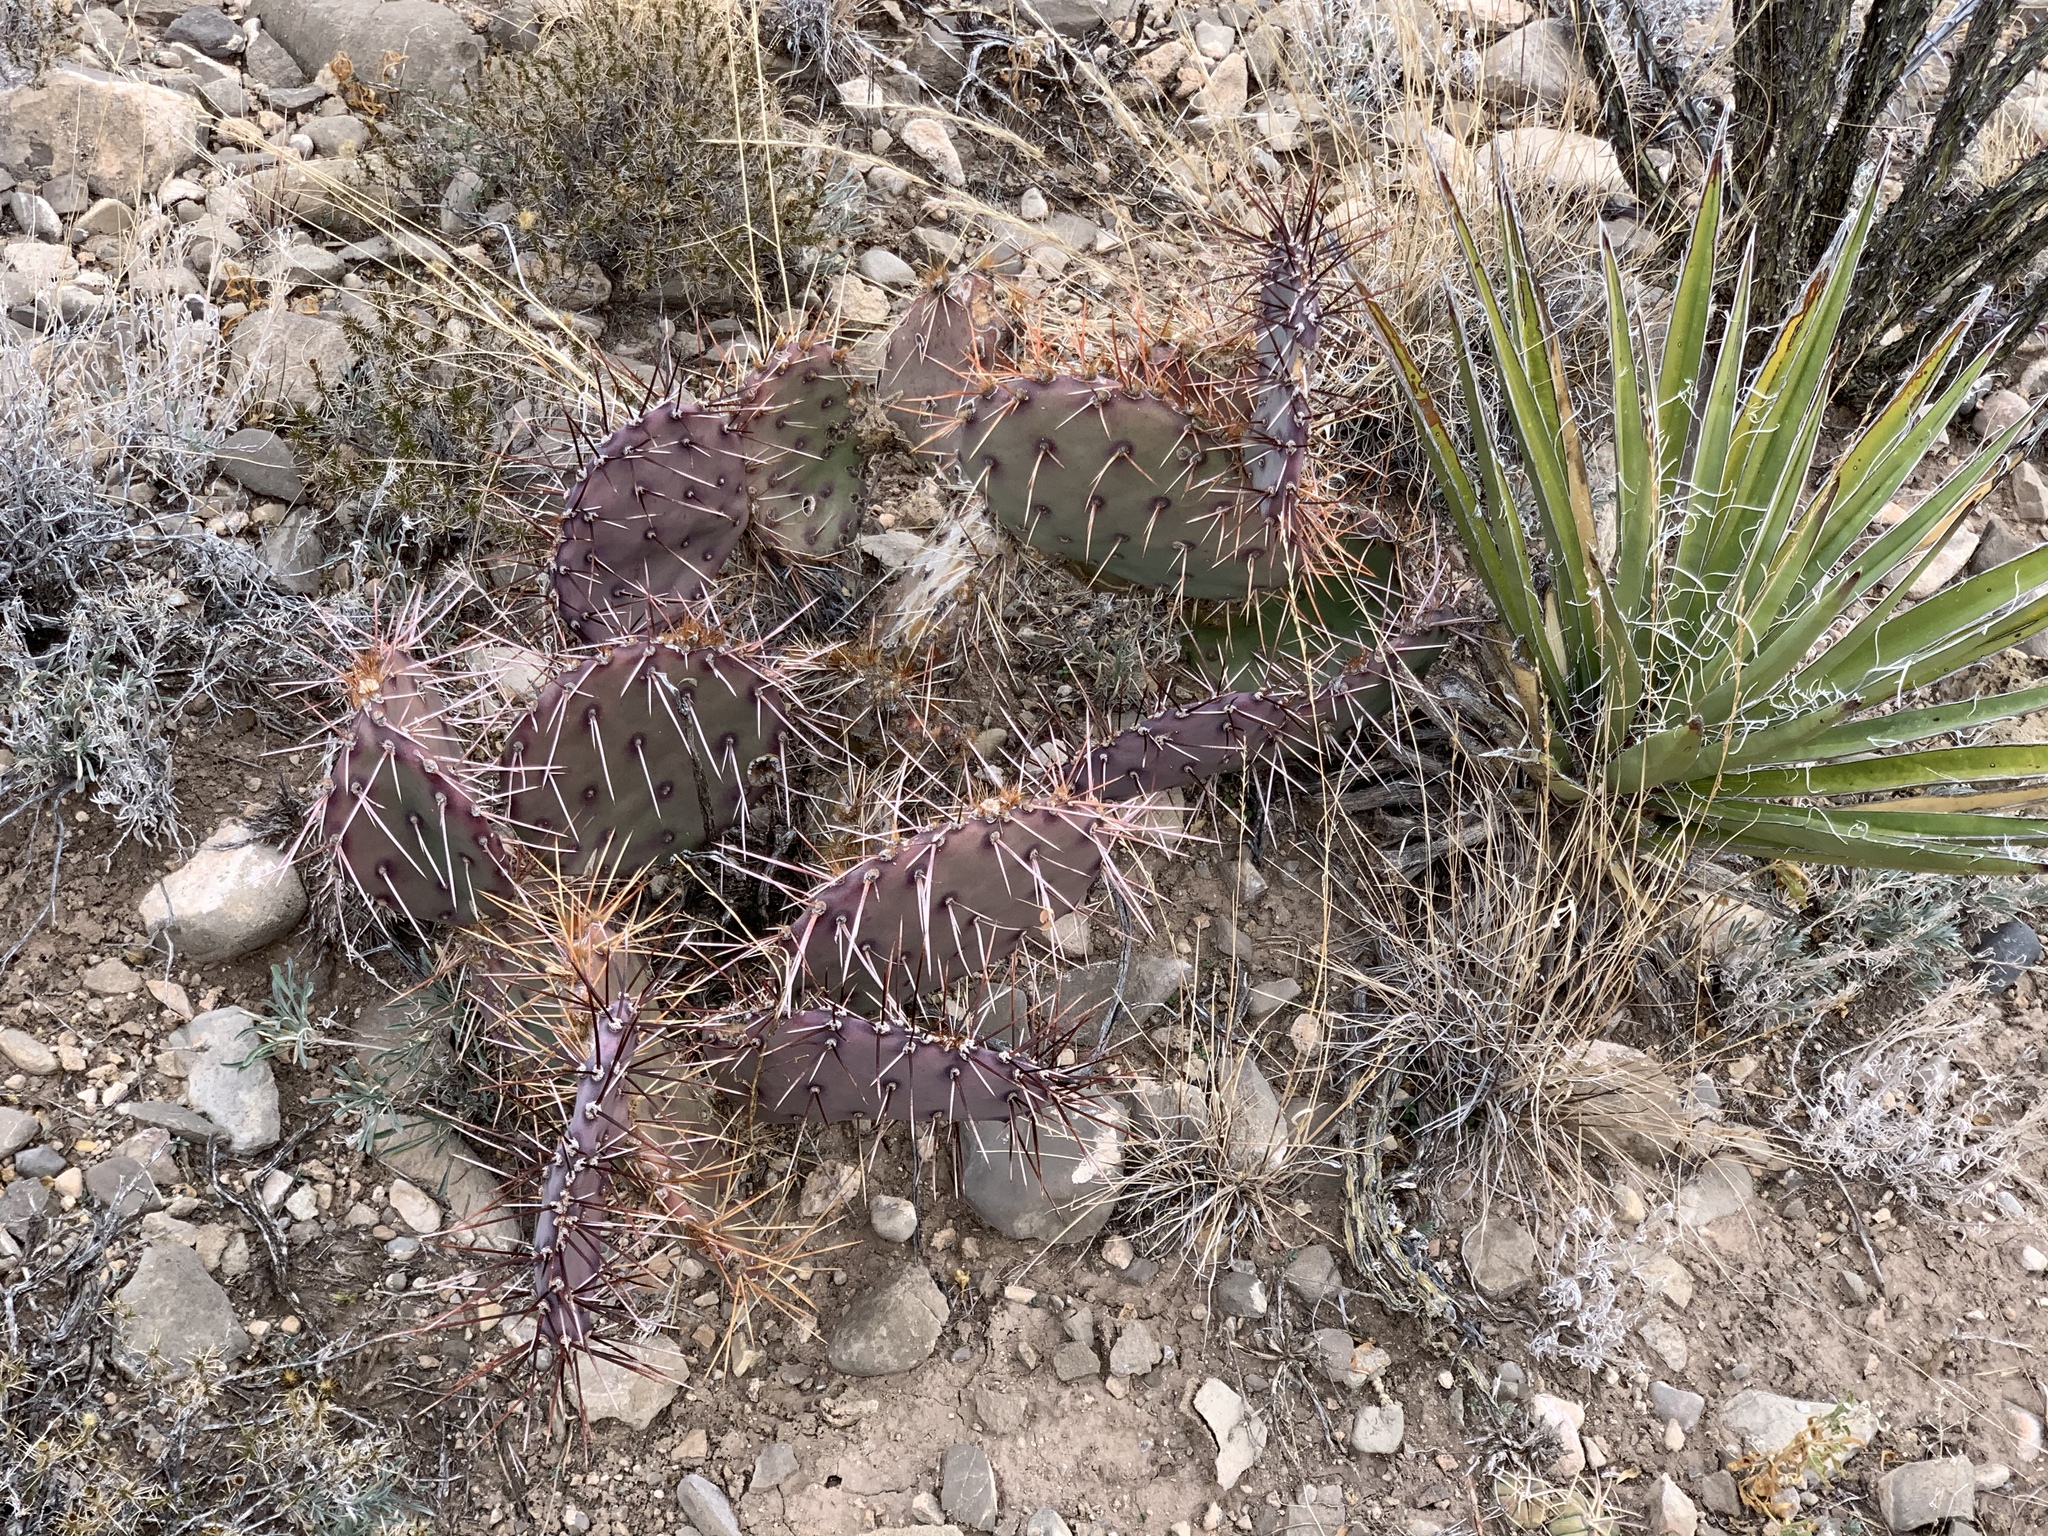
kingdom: Plantae
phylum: Tracheophyta
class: Magnoliopsida
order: Caryophyllales
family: Cactaceae
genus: Opuntia
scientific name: Opuntia macrocentra
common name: Purple prickly-pear
